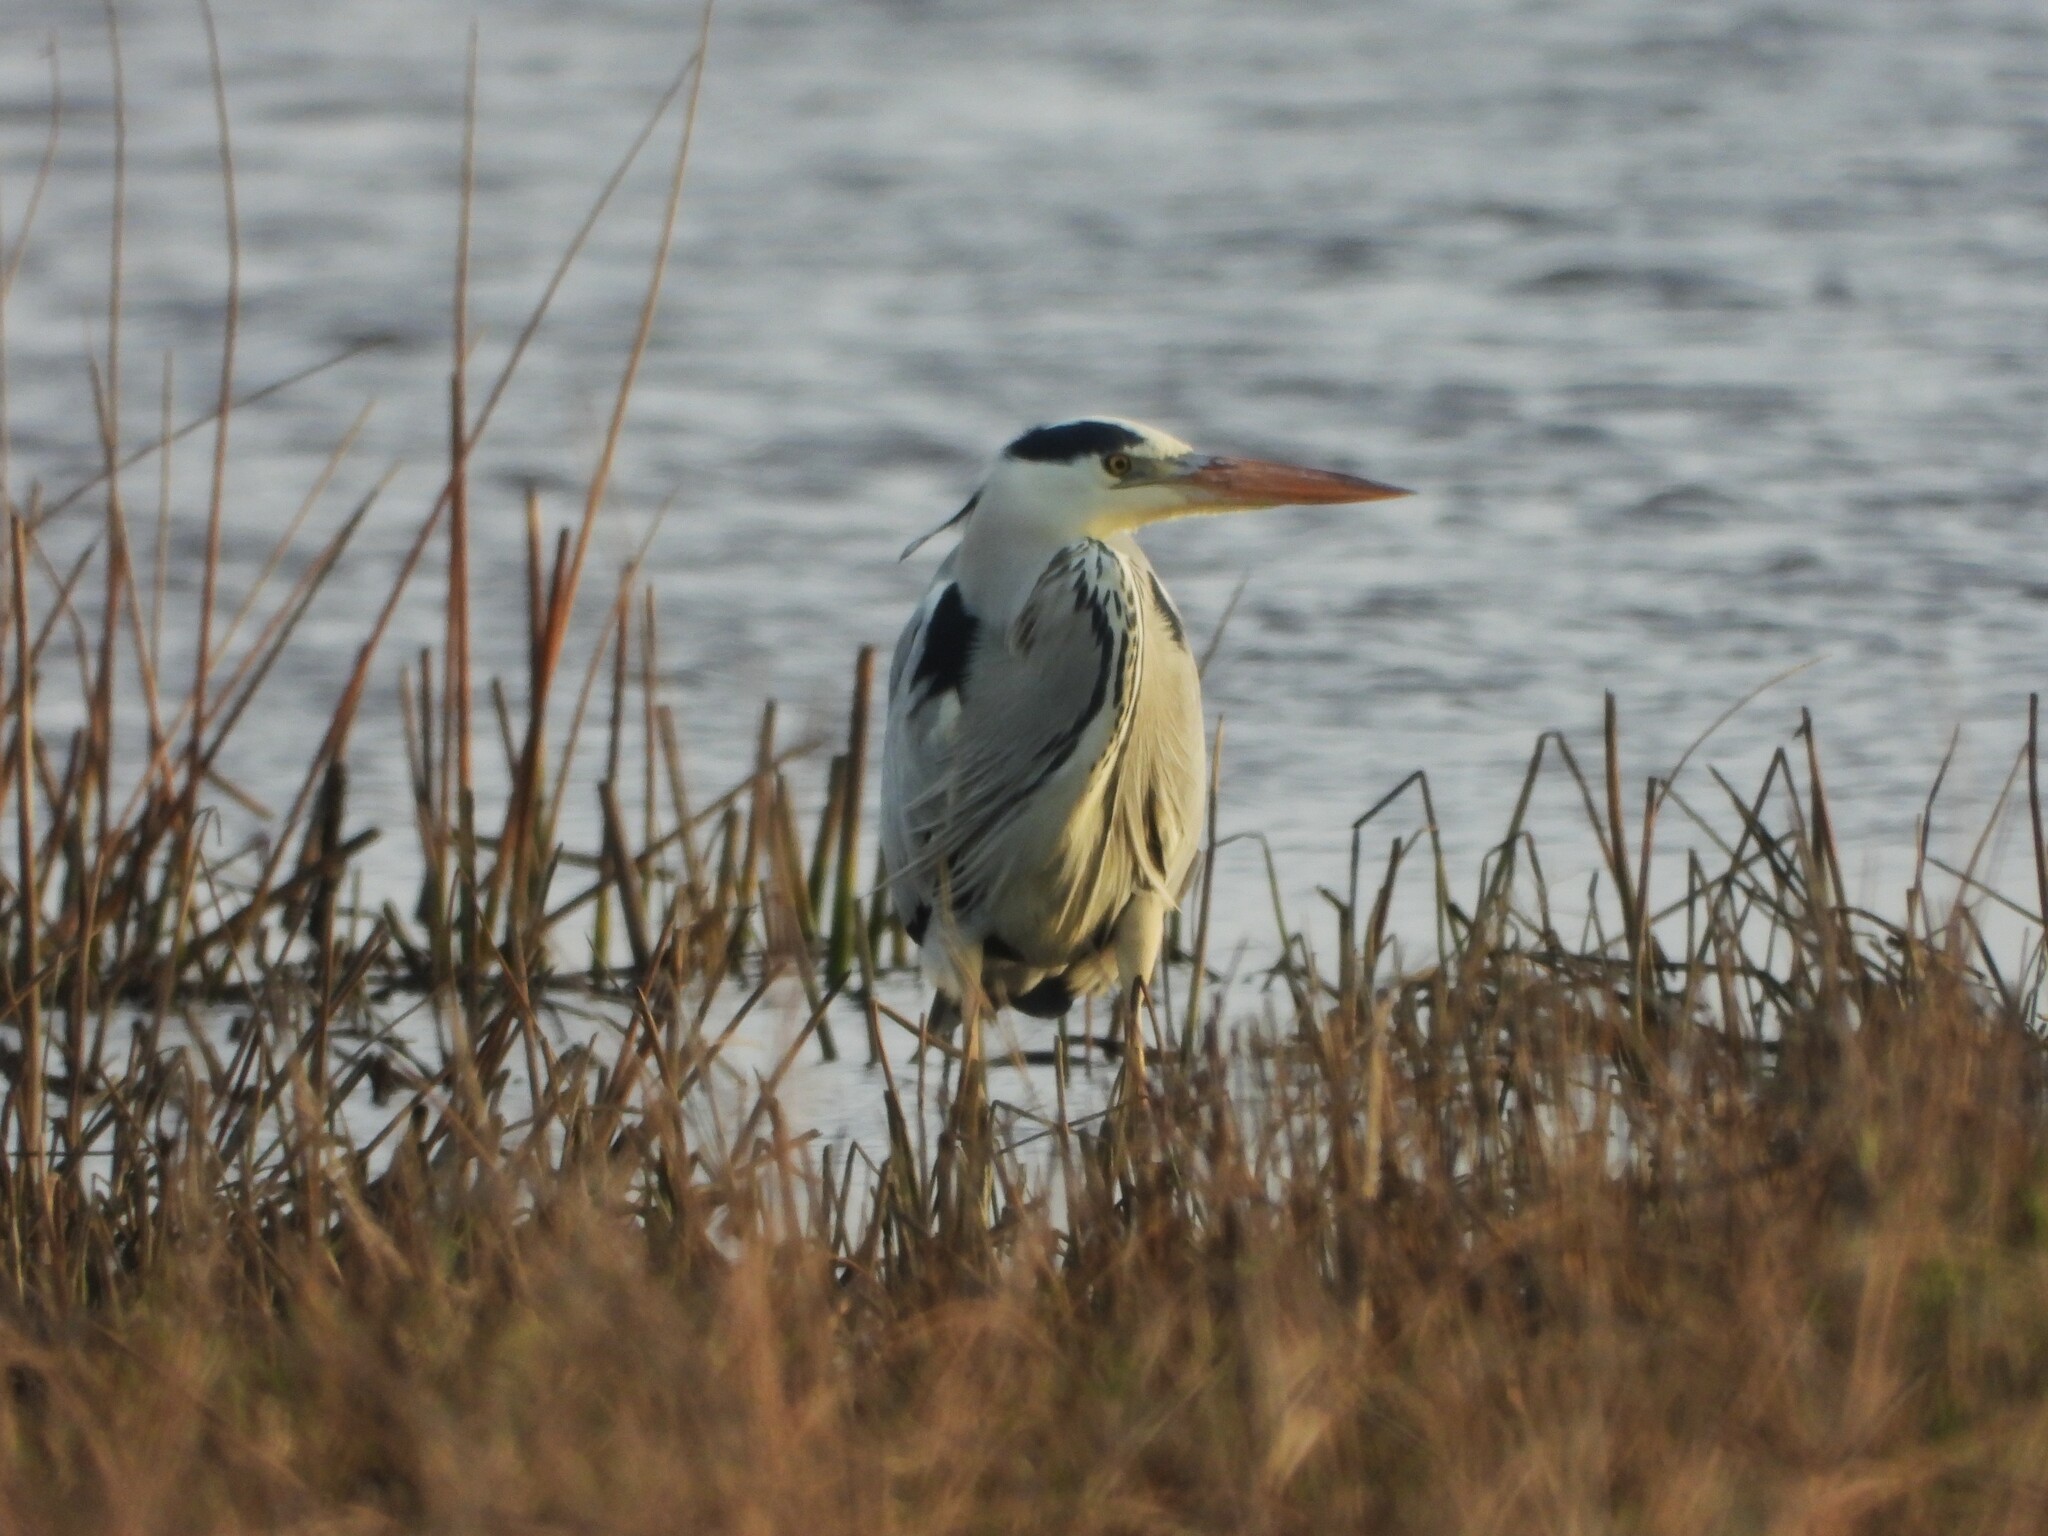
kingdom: Animalia
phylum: Chordata
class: Aves
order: Pelecaniformes
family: Ardeidae
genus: Ardea
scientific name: Ardea cinerea
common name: Grey heron
